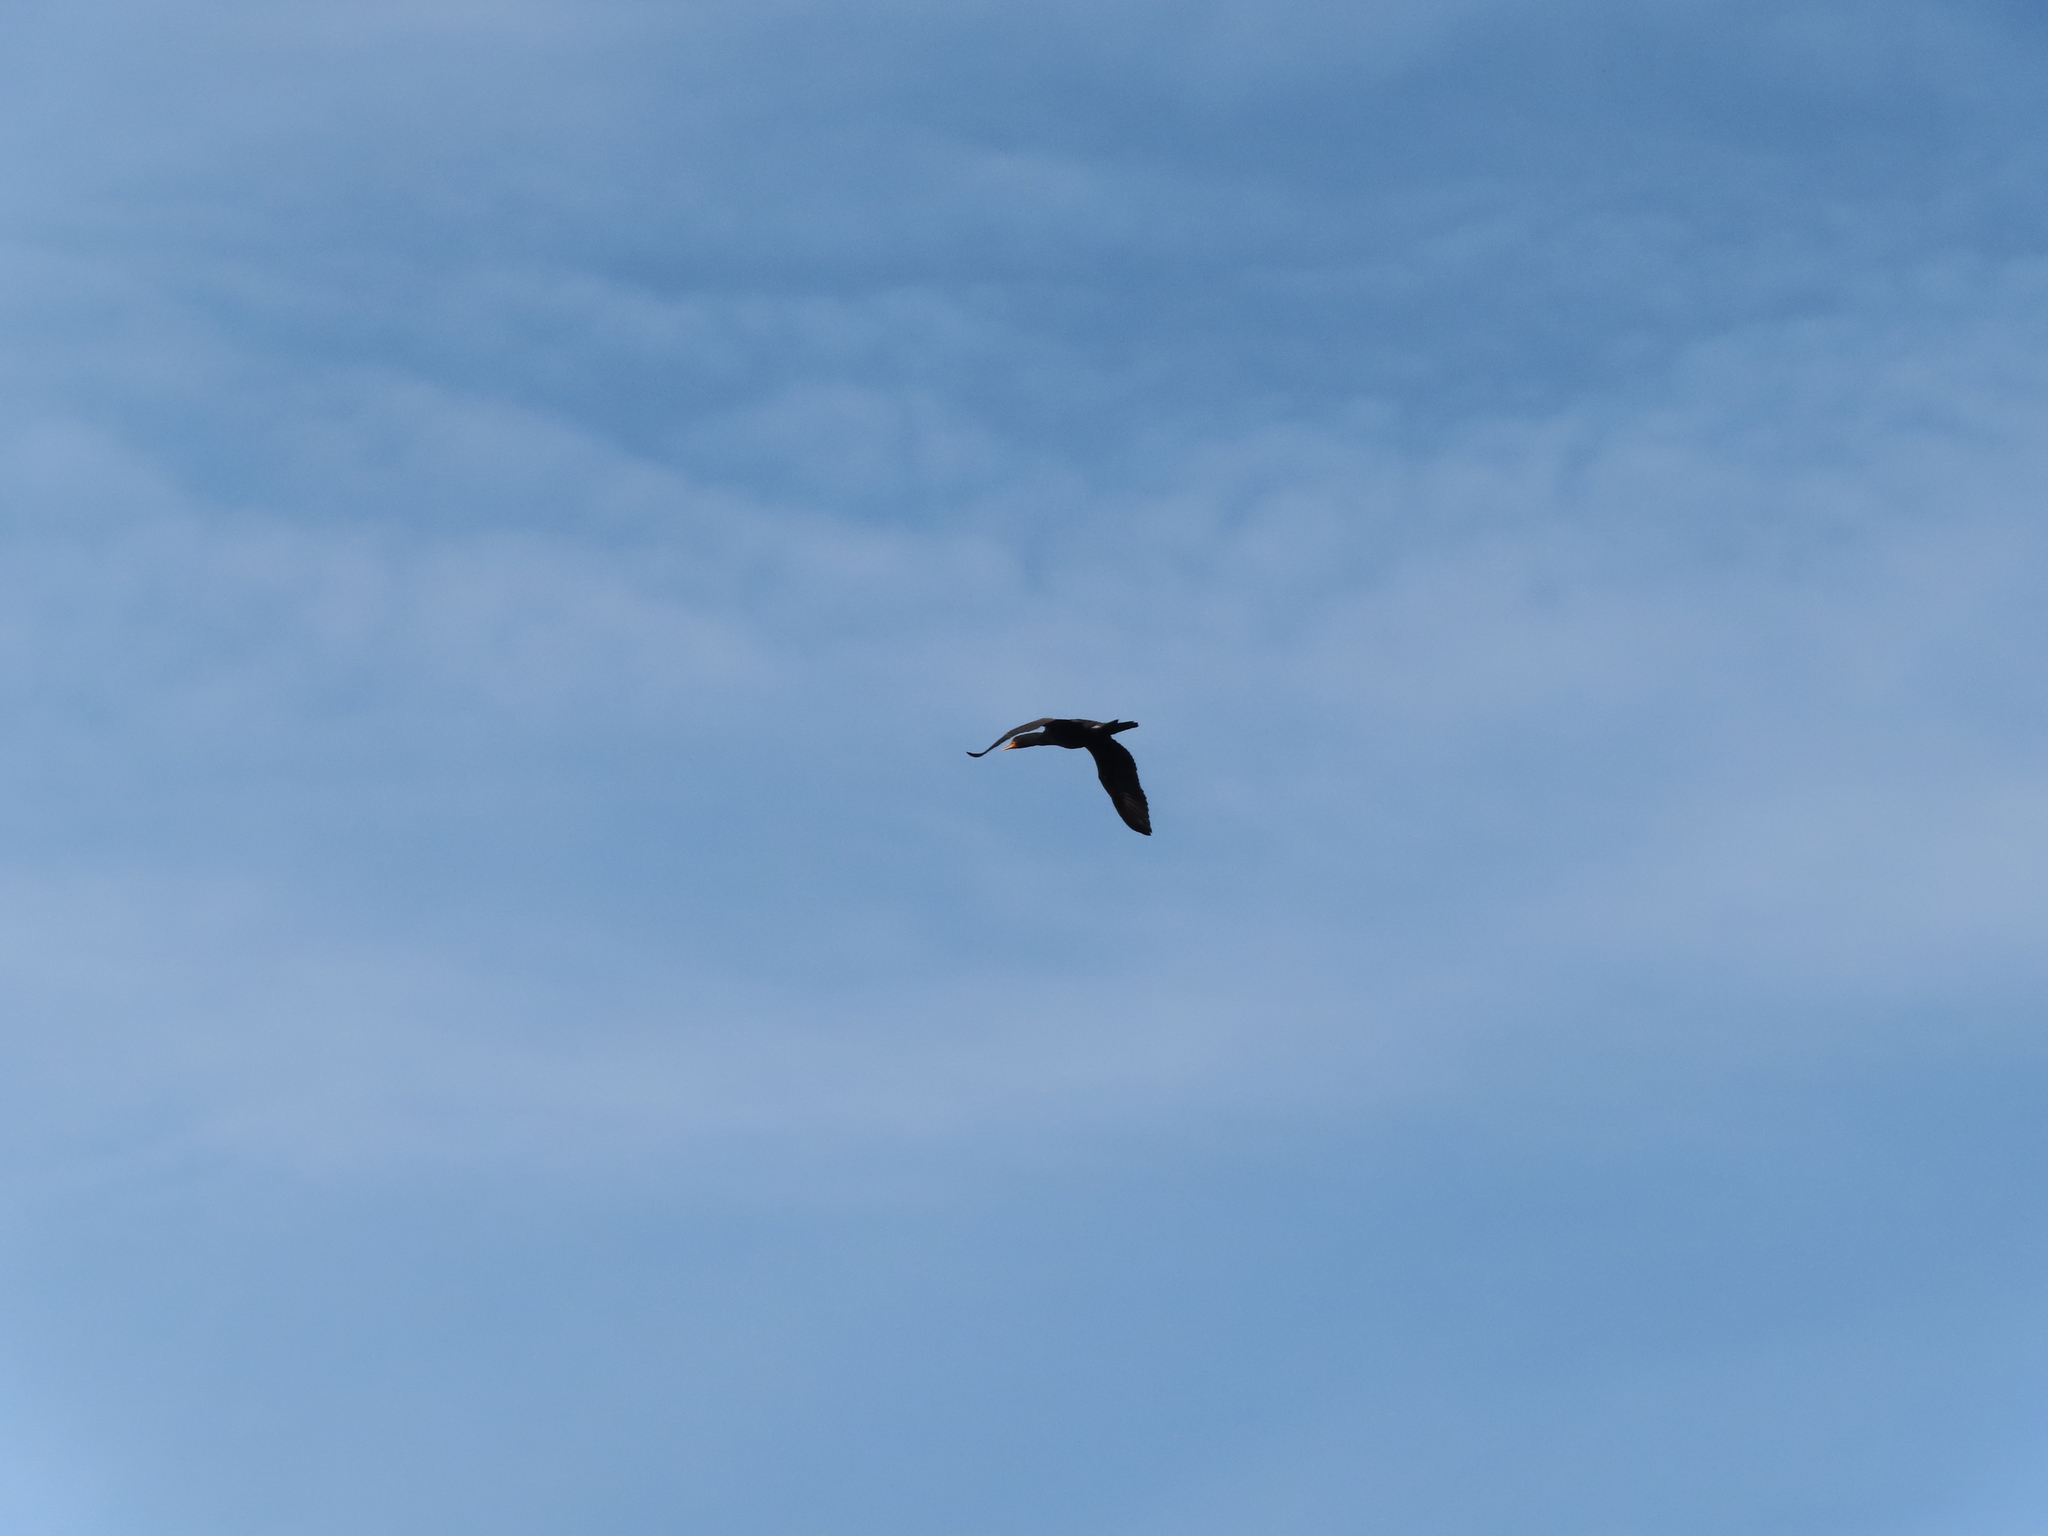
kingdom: Animalia
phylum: Chordata
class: Aves
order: Suliformes
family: Phalacrocoracidae
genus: Phalacrocorax
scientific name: Phalacrocorax auritus
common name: Double-crested cormorant
